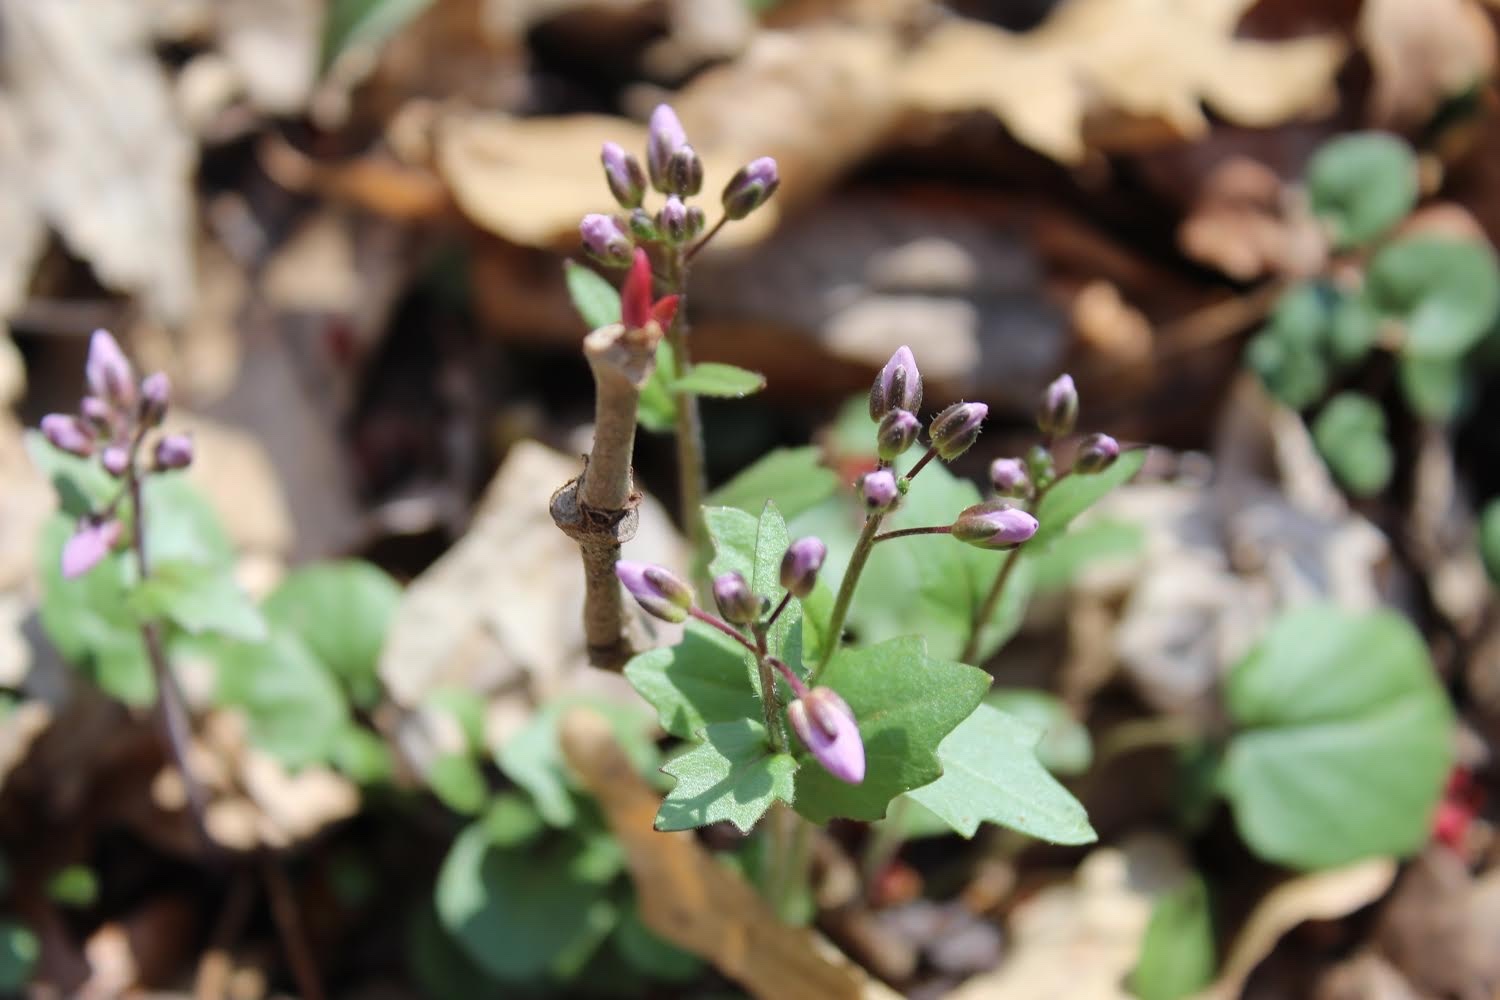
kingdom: Plantae
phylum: Tracheophyta
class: Magnoliopsida
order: Brassicales
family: Brassicaceae
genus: Cardamine
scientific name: Cardamine douglassii
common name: Purple cress
